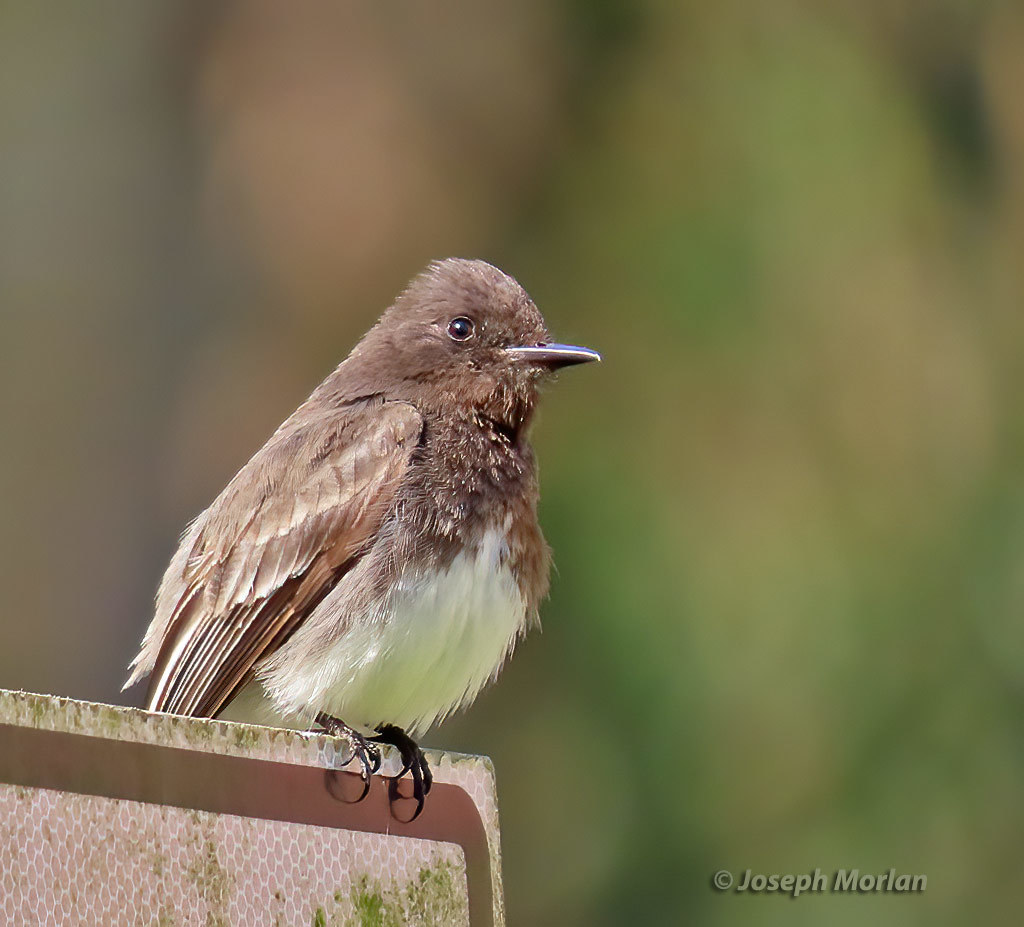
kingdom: Animalia
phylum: Chordata
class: Aves
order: Passeriformes
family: Tyrannidae
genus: Sayornis
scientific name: Sayornis nigricans
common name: Black phoebe
